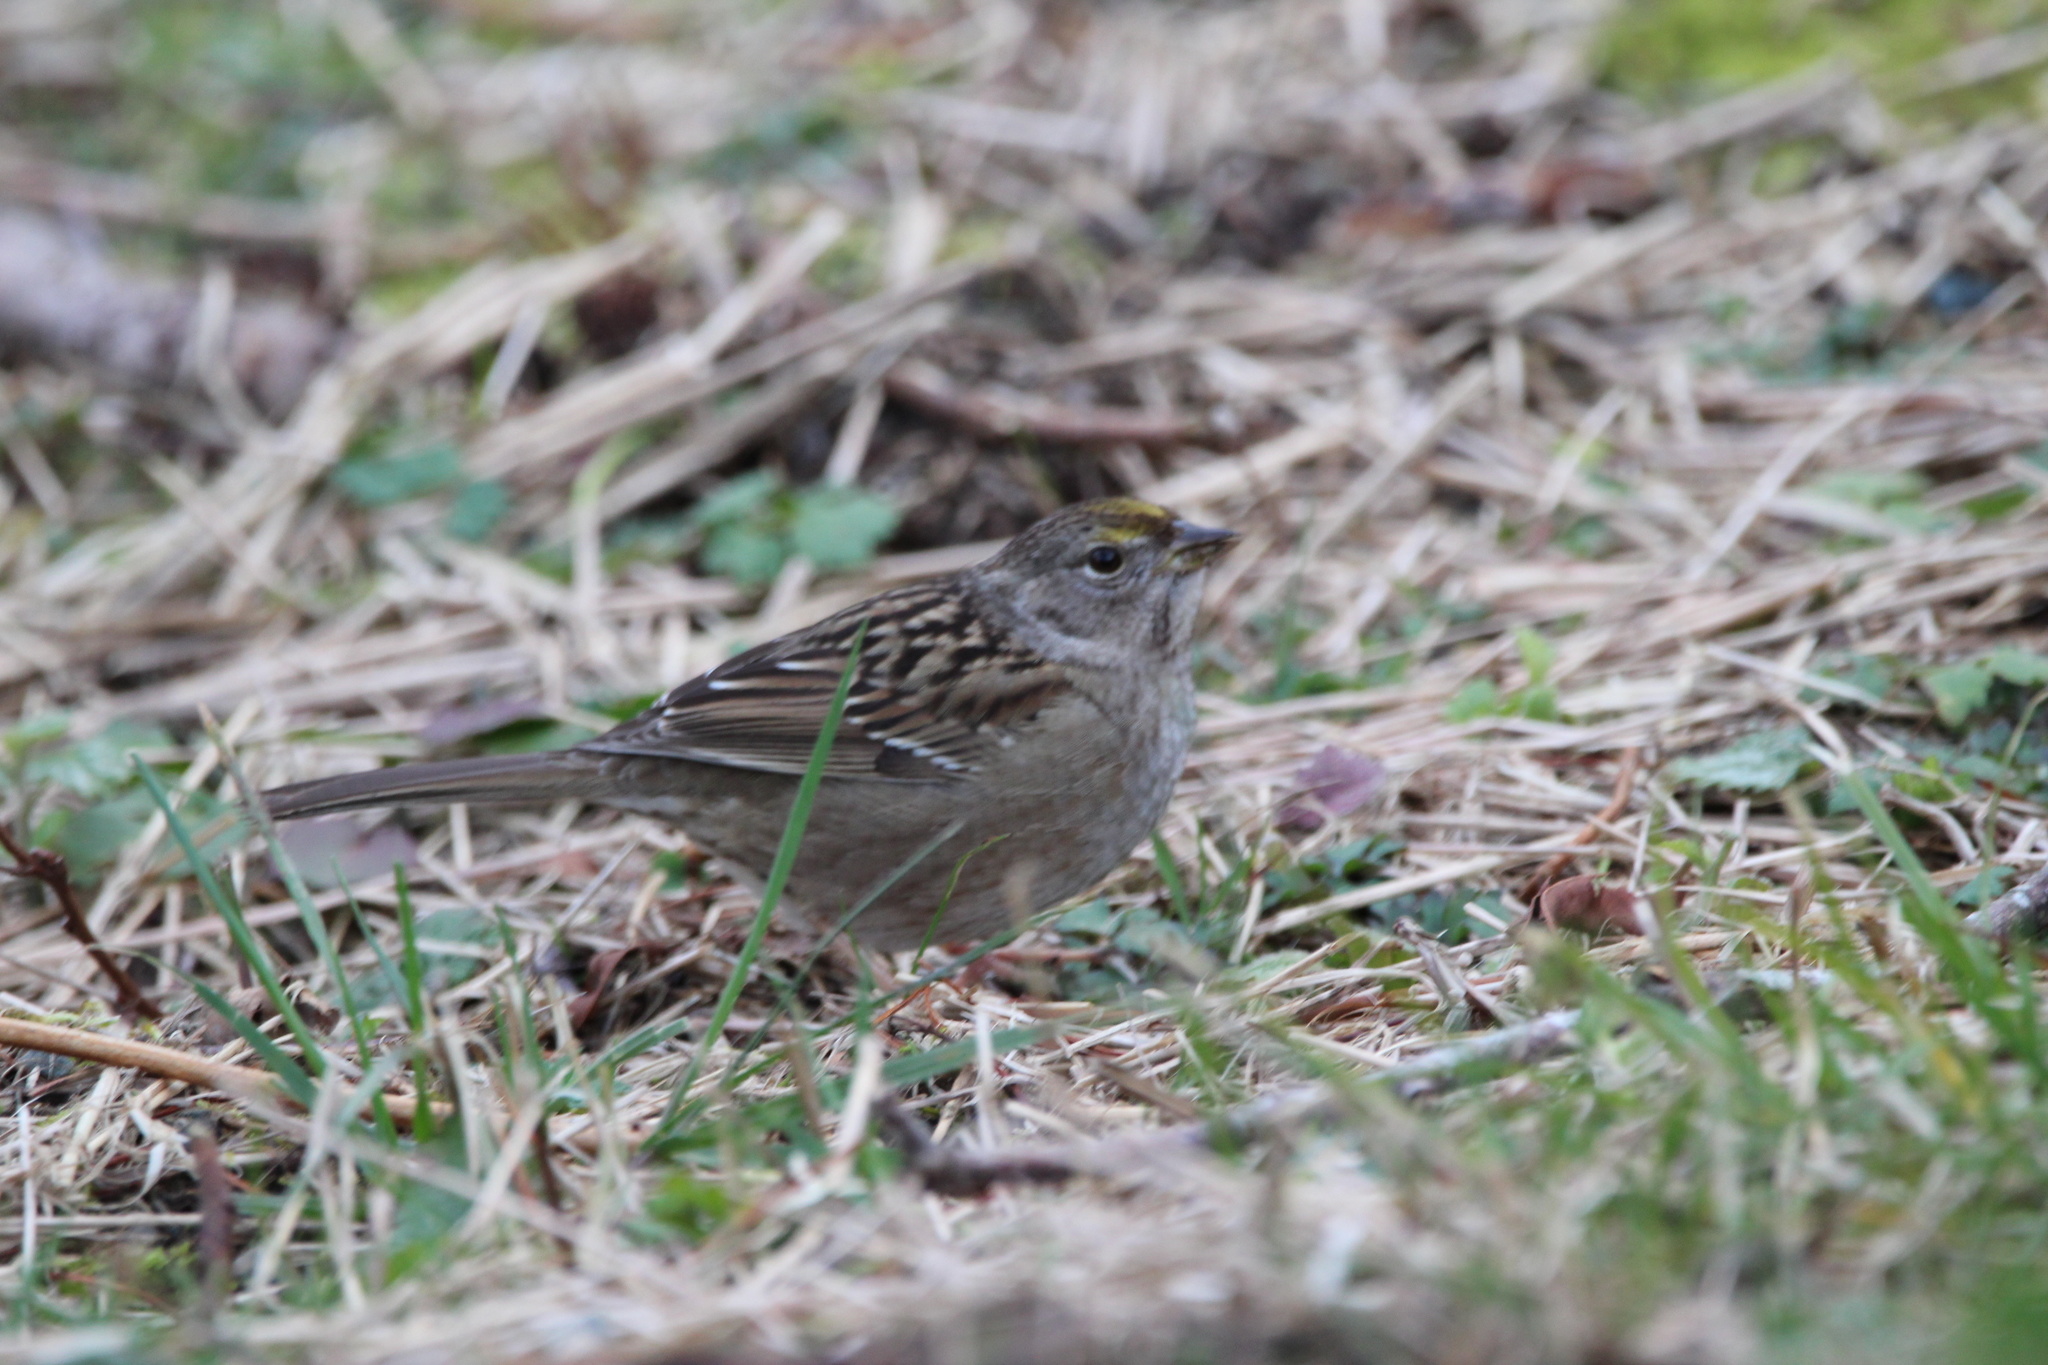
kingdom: Animalia
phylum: Chordata
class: Aves
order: Passeriformes
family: Passerellidae
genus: Zonotrichia
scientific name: Zonotrichia atricapilla
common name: Golden-crowned sparrow
